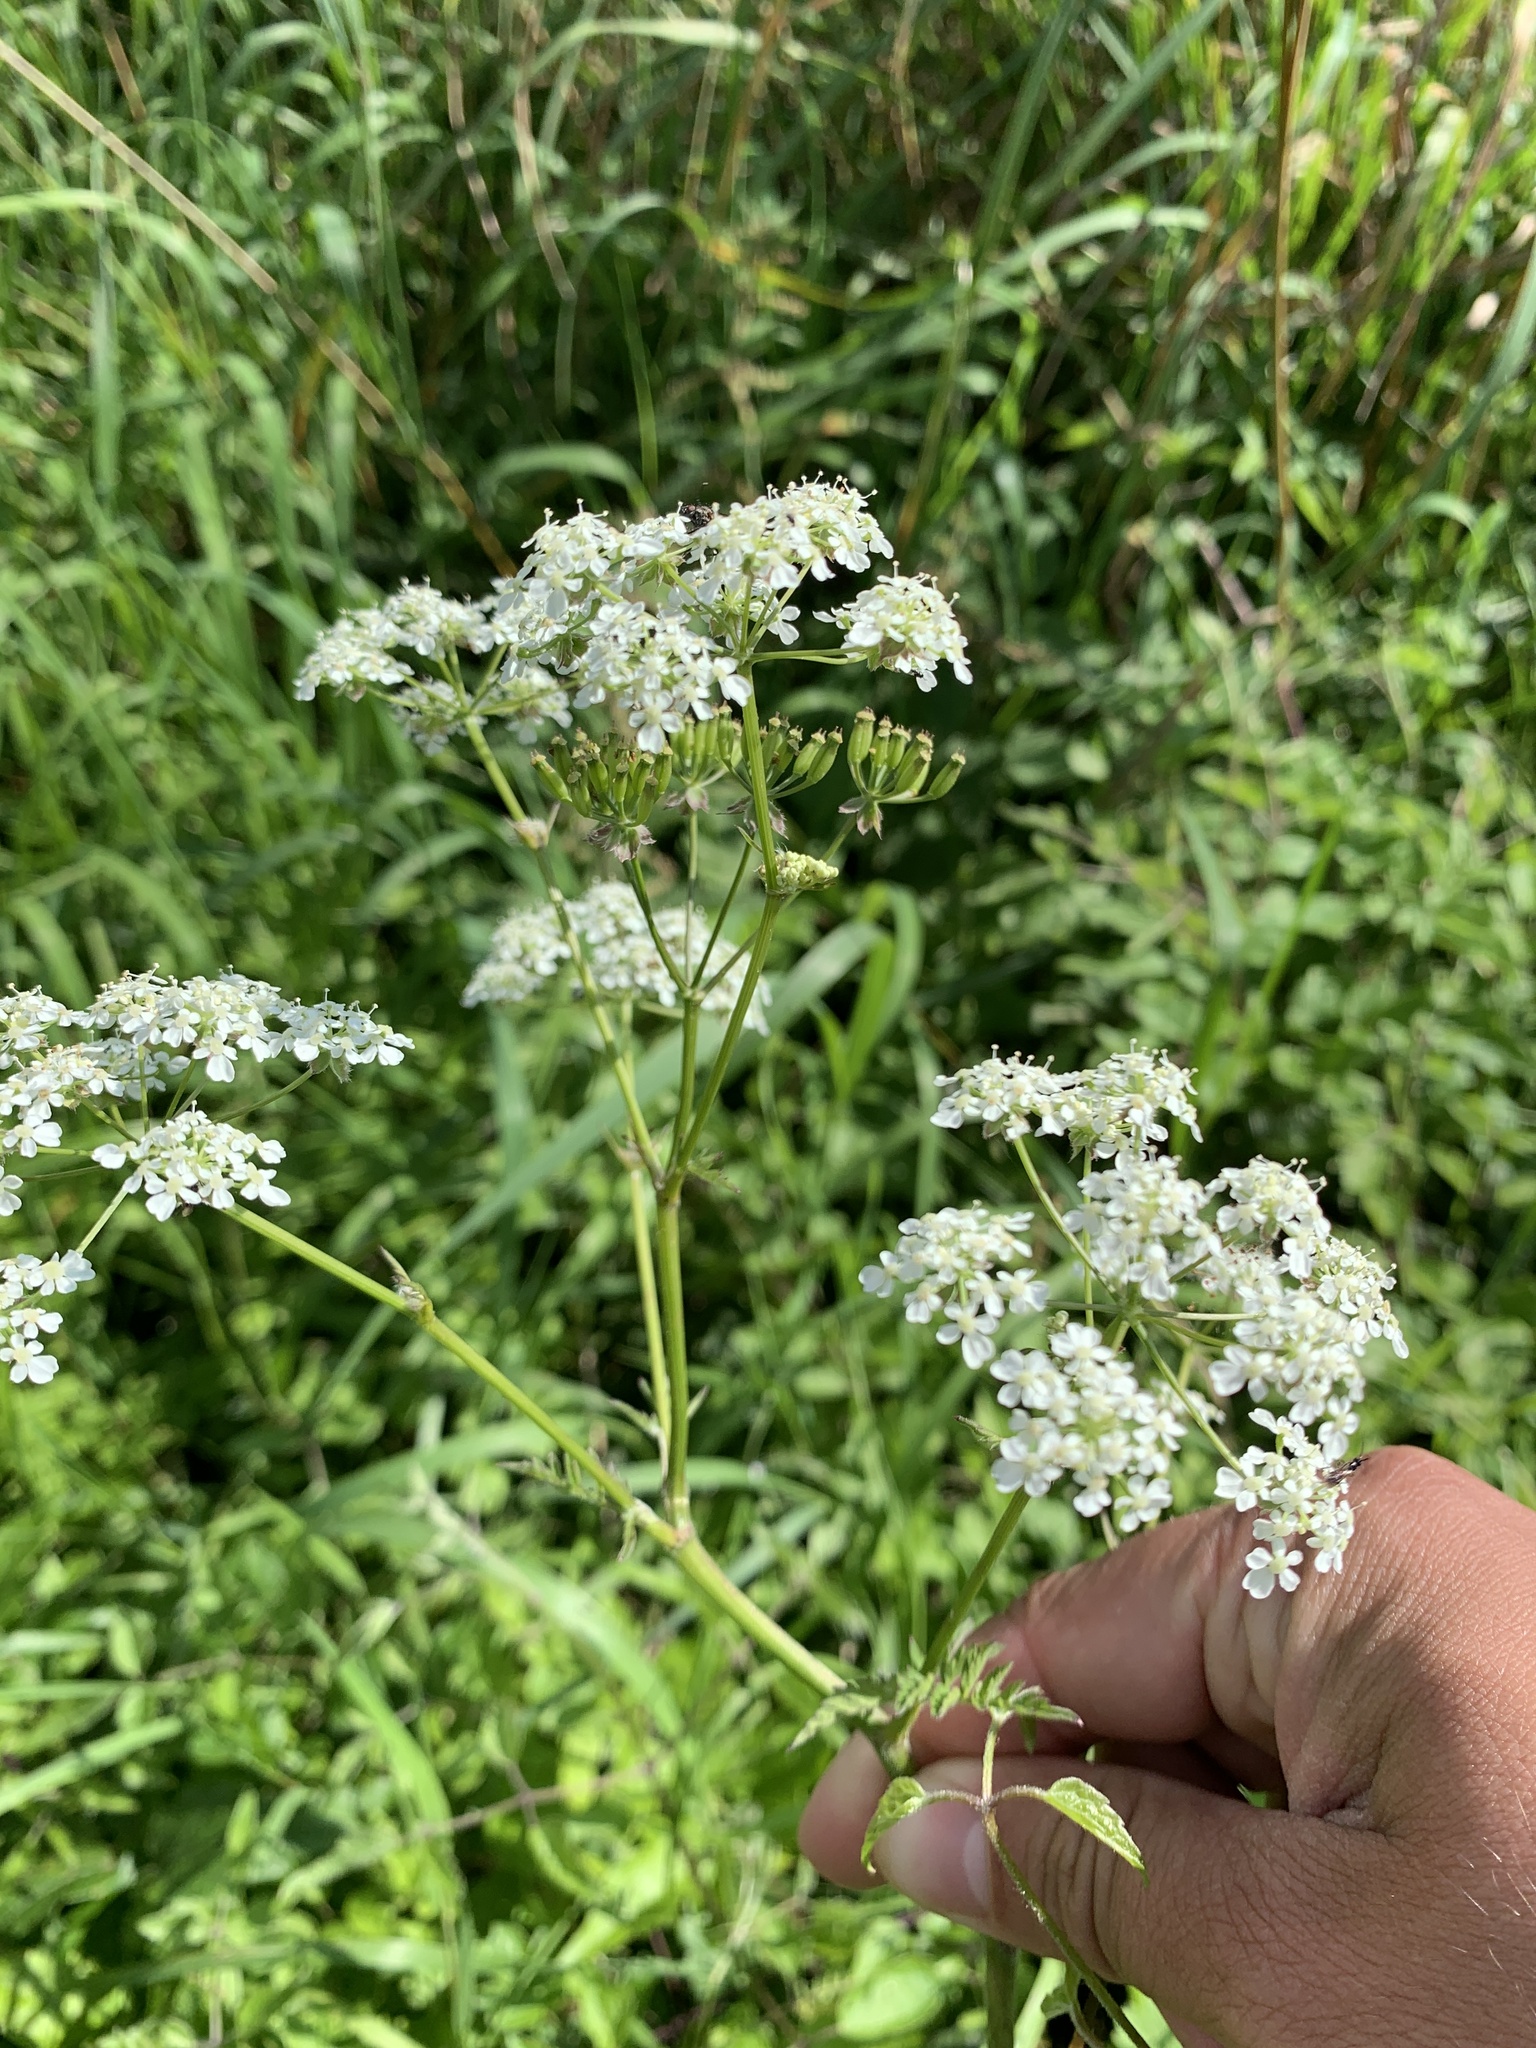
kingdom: Plantae
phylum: Tracheophyta
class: Magnoliopsida
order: Apiales
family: Apiaceae
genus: Anthriscus
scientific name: Anthriscus sylvestris
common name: Cow parsley
